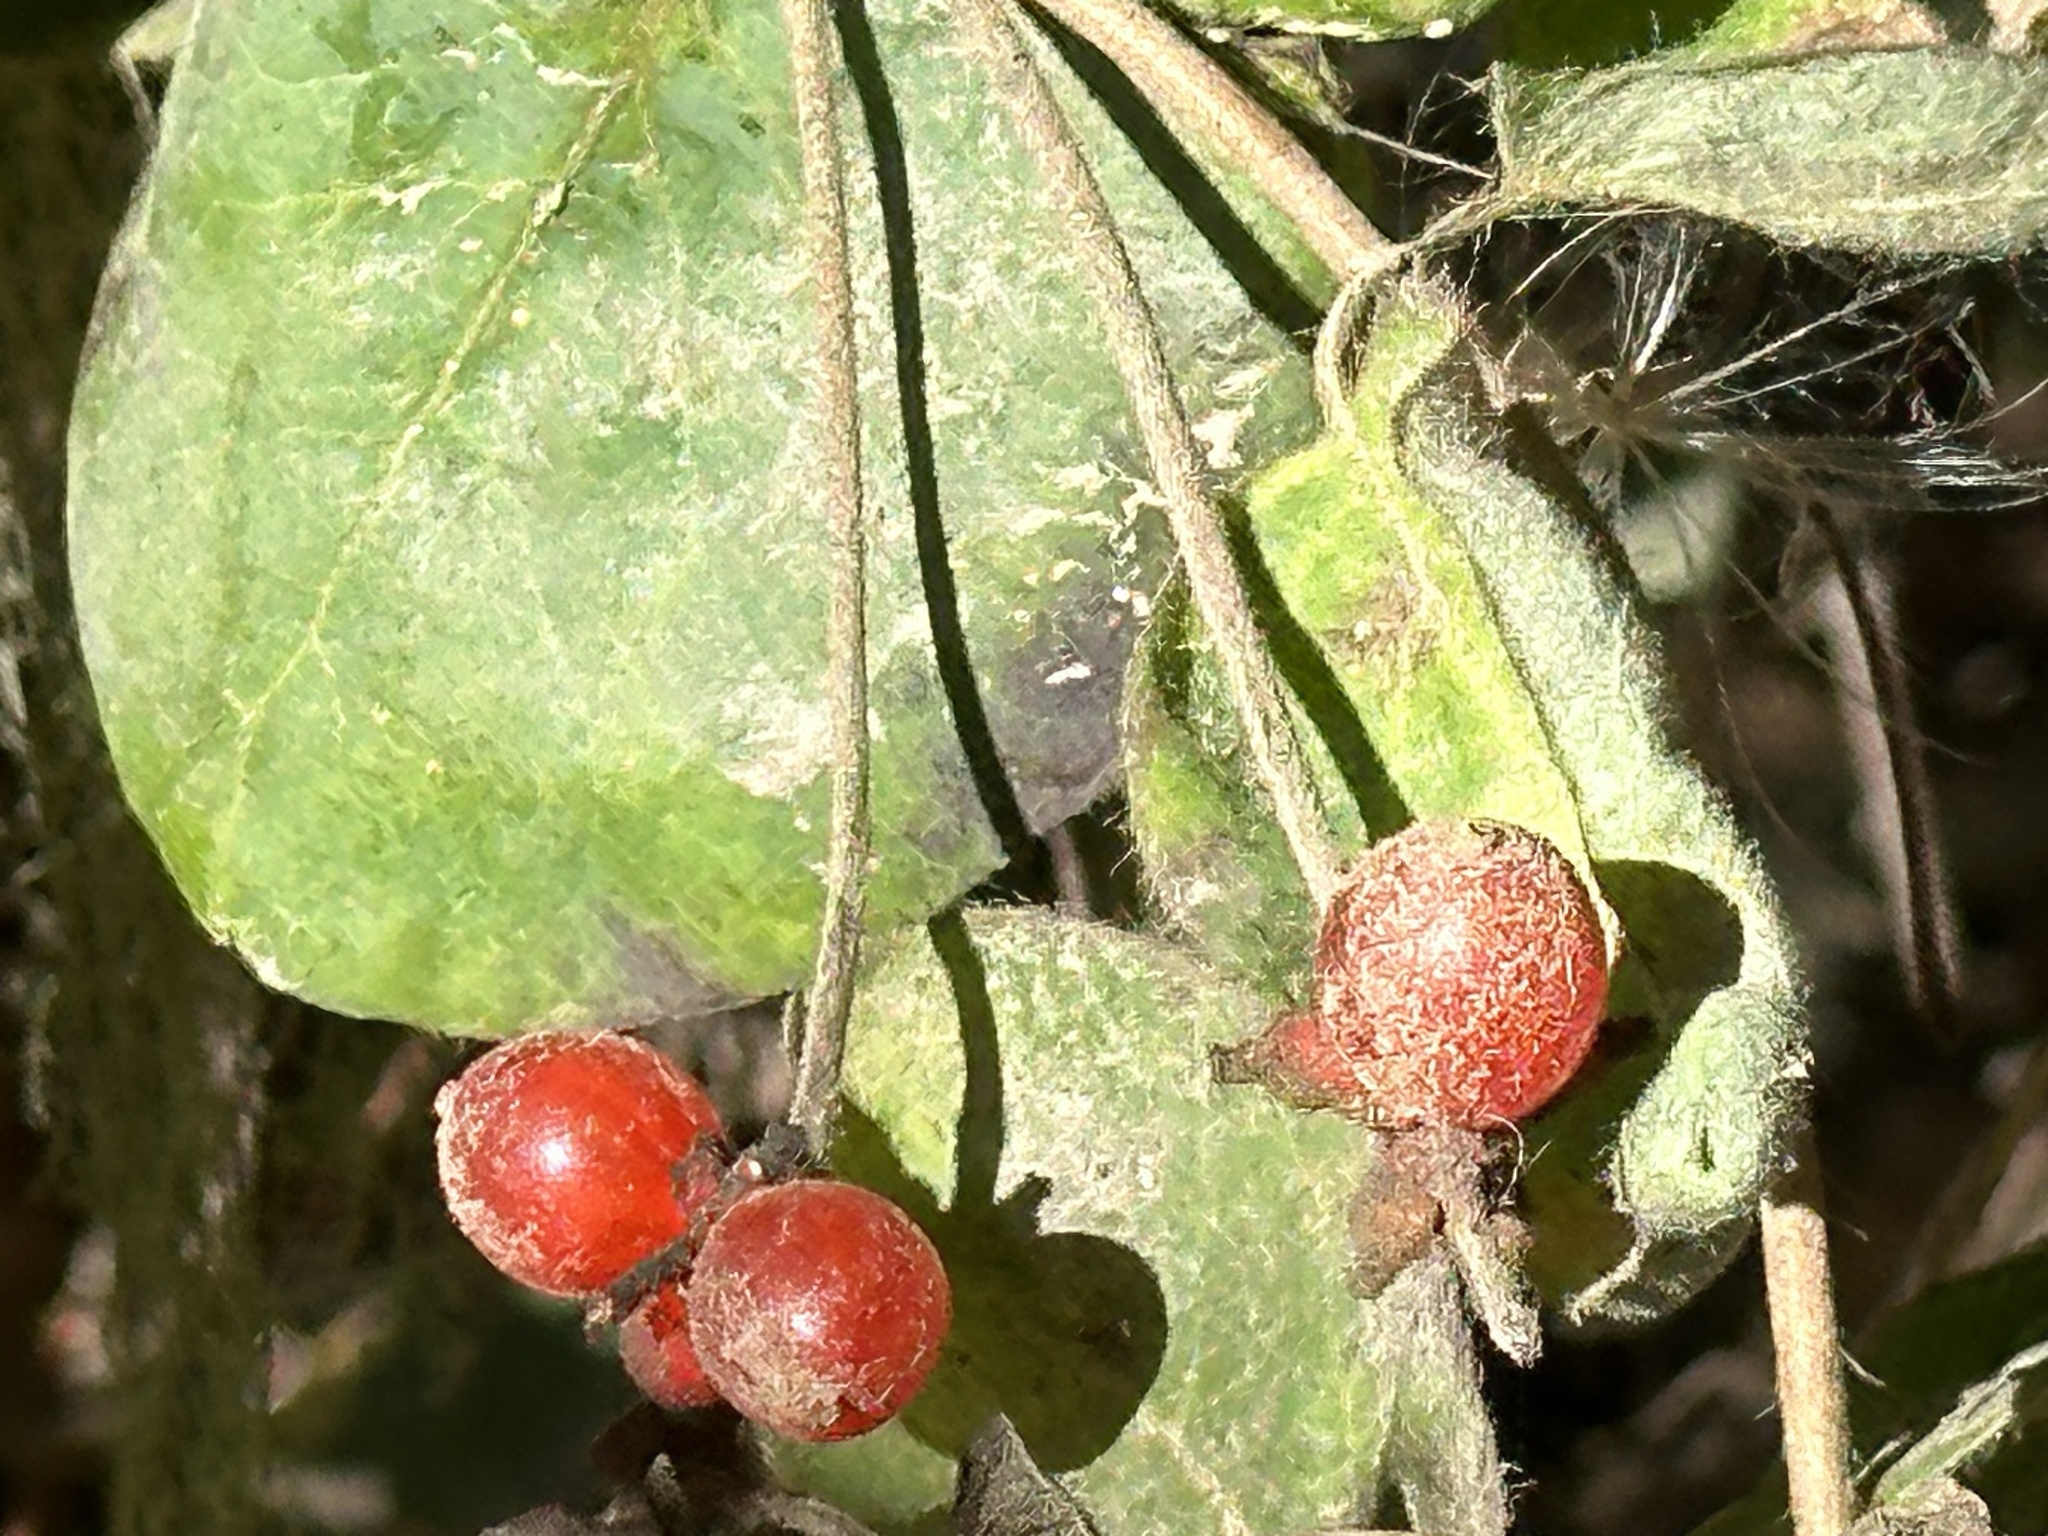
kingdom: Plantae
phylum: Tracheophyta
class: Magnoliopsida
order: Dipsacales
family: Caprifoliaceae
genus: Lonicera
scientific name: Lonicera hispidula
